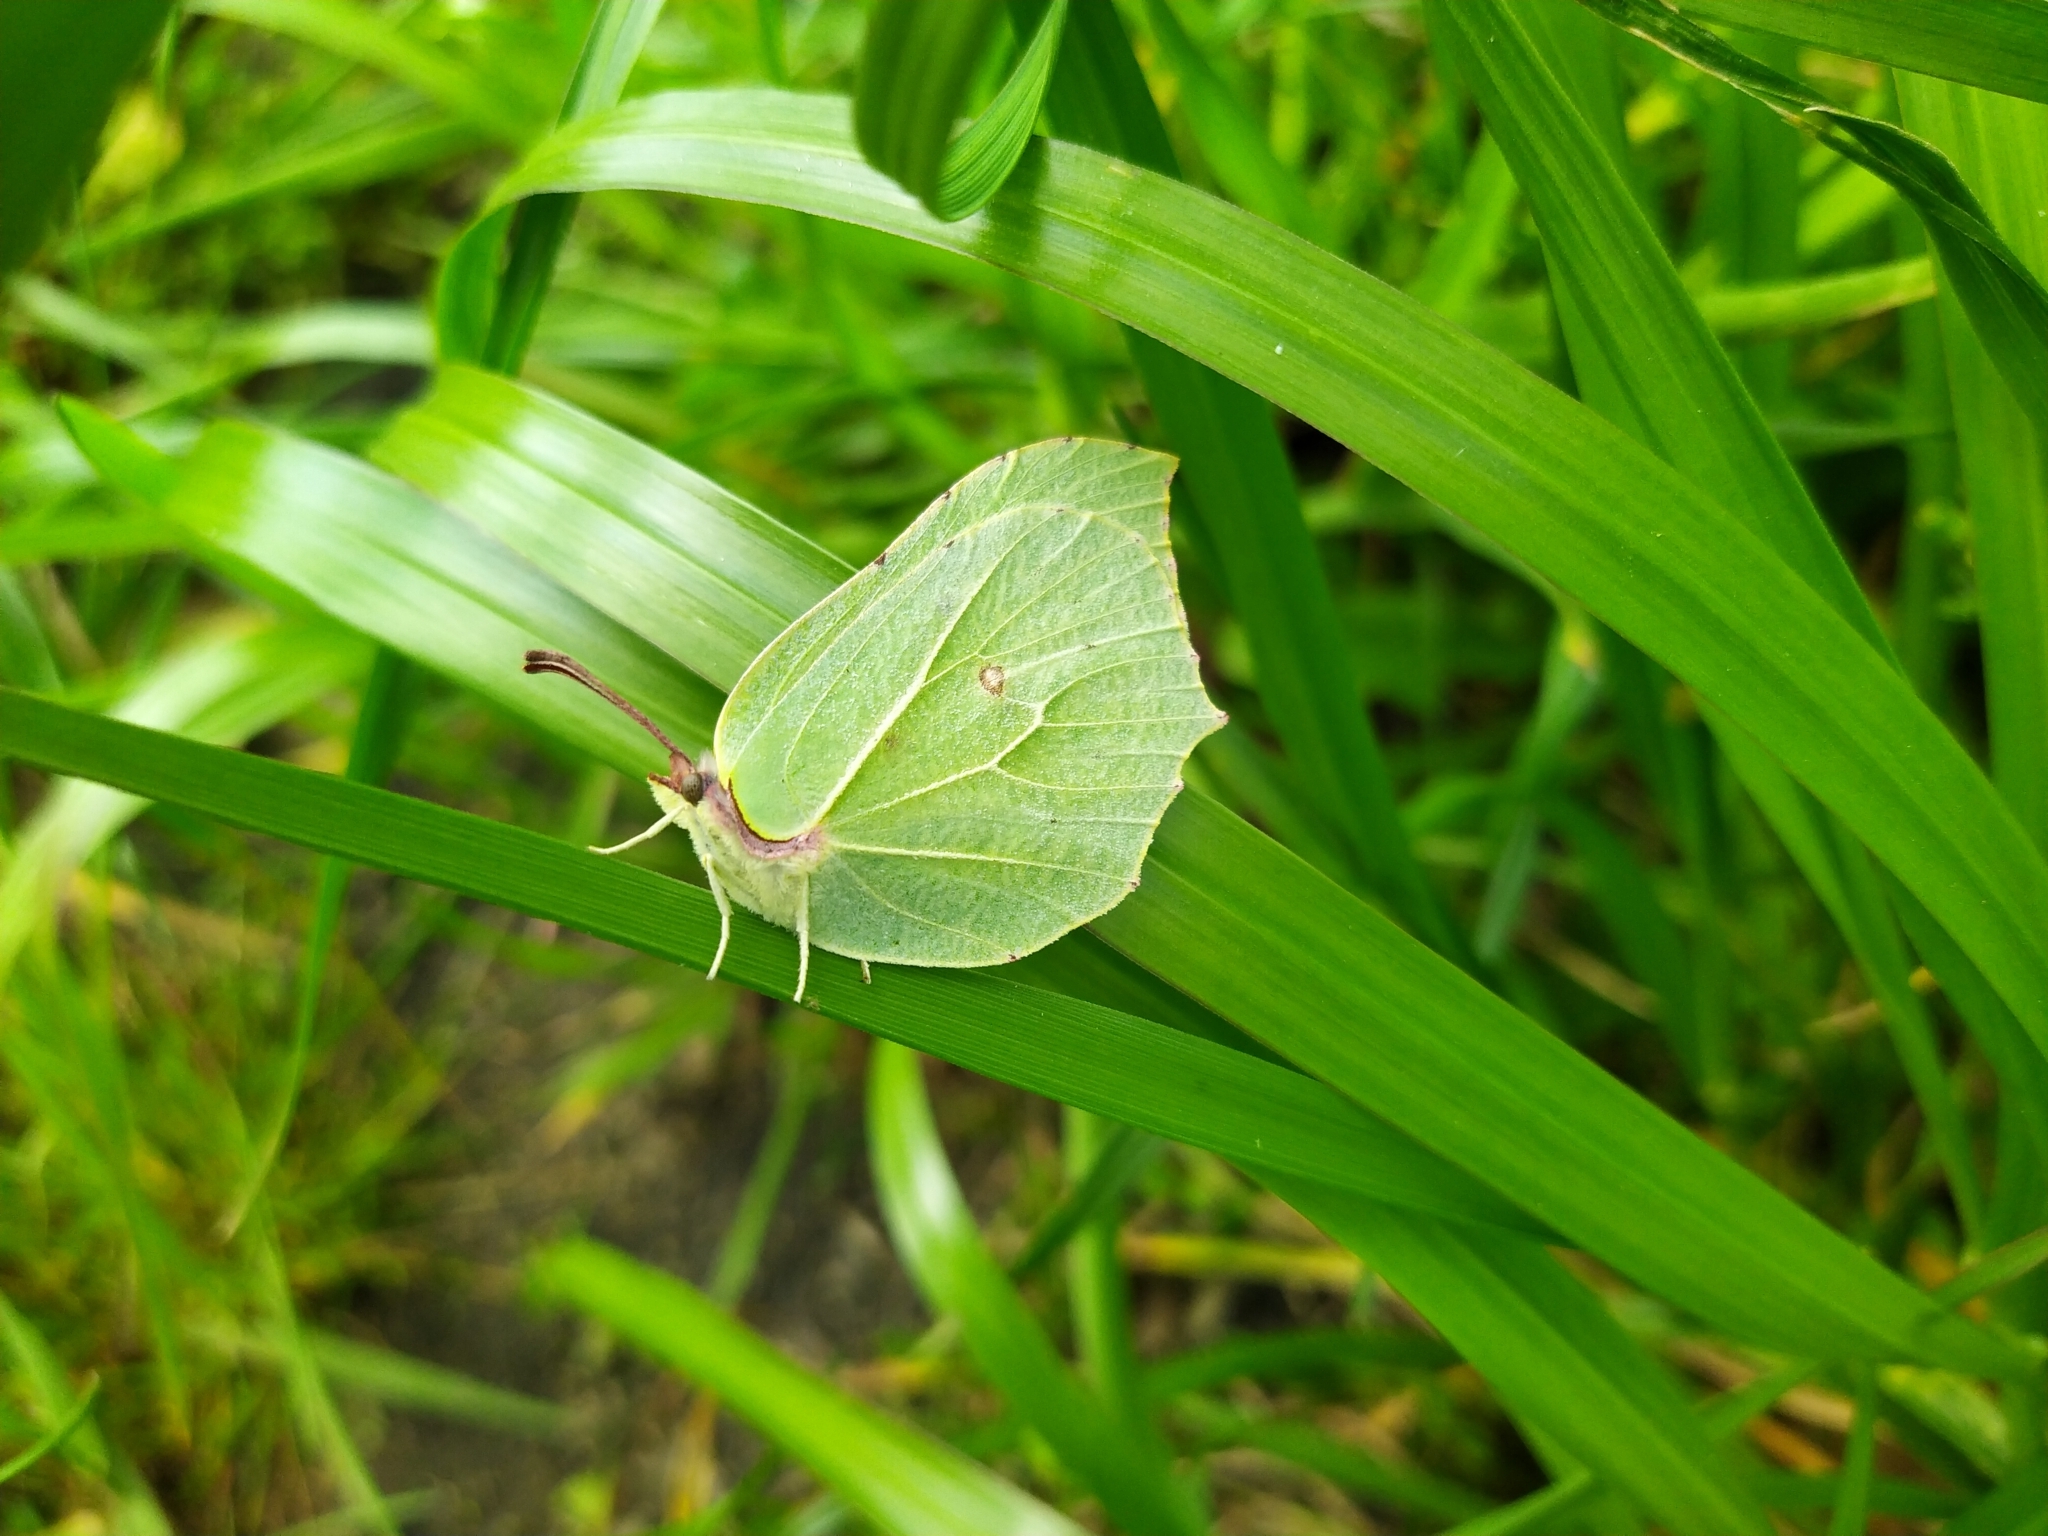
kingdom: Animalia
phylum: Arthropoda
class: Insecta
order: Lepidoptera
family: Pieridae
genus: Gonepteryx
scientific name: Gonepteryx rhamni
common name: Brimstone
